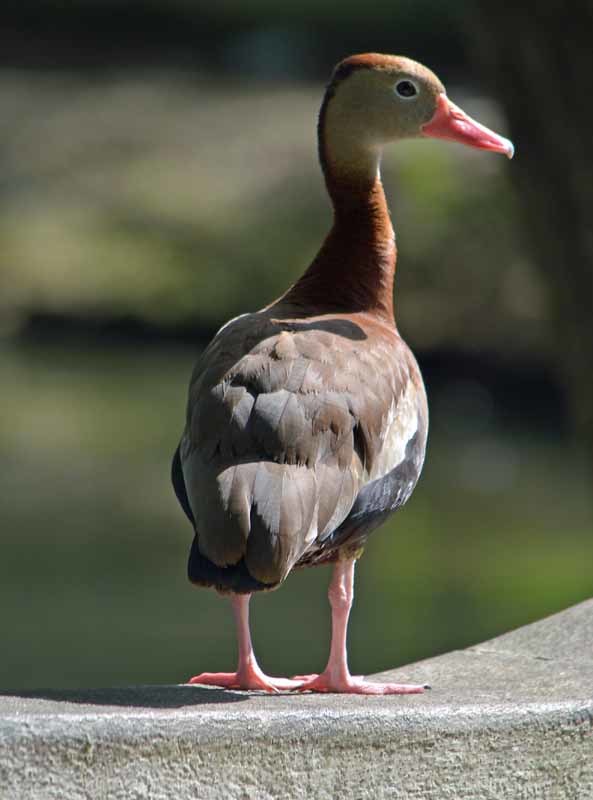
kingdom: Animalia
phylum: Chordata
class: Aves
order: Anseriformes
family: Anatidae
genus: Dendrocygna
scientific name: Dendrocygna autumnalis
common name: Black-bellied whistling duck
